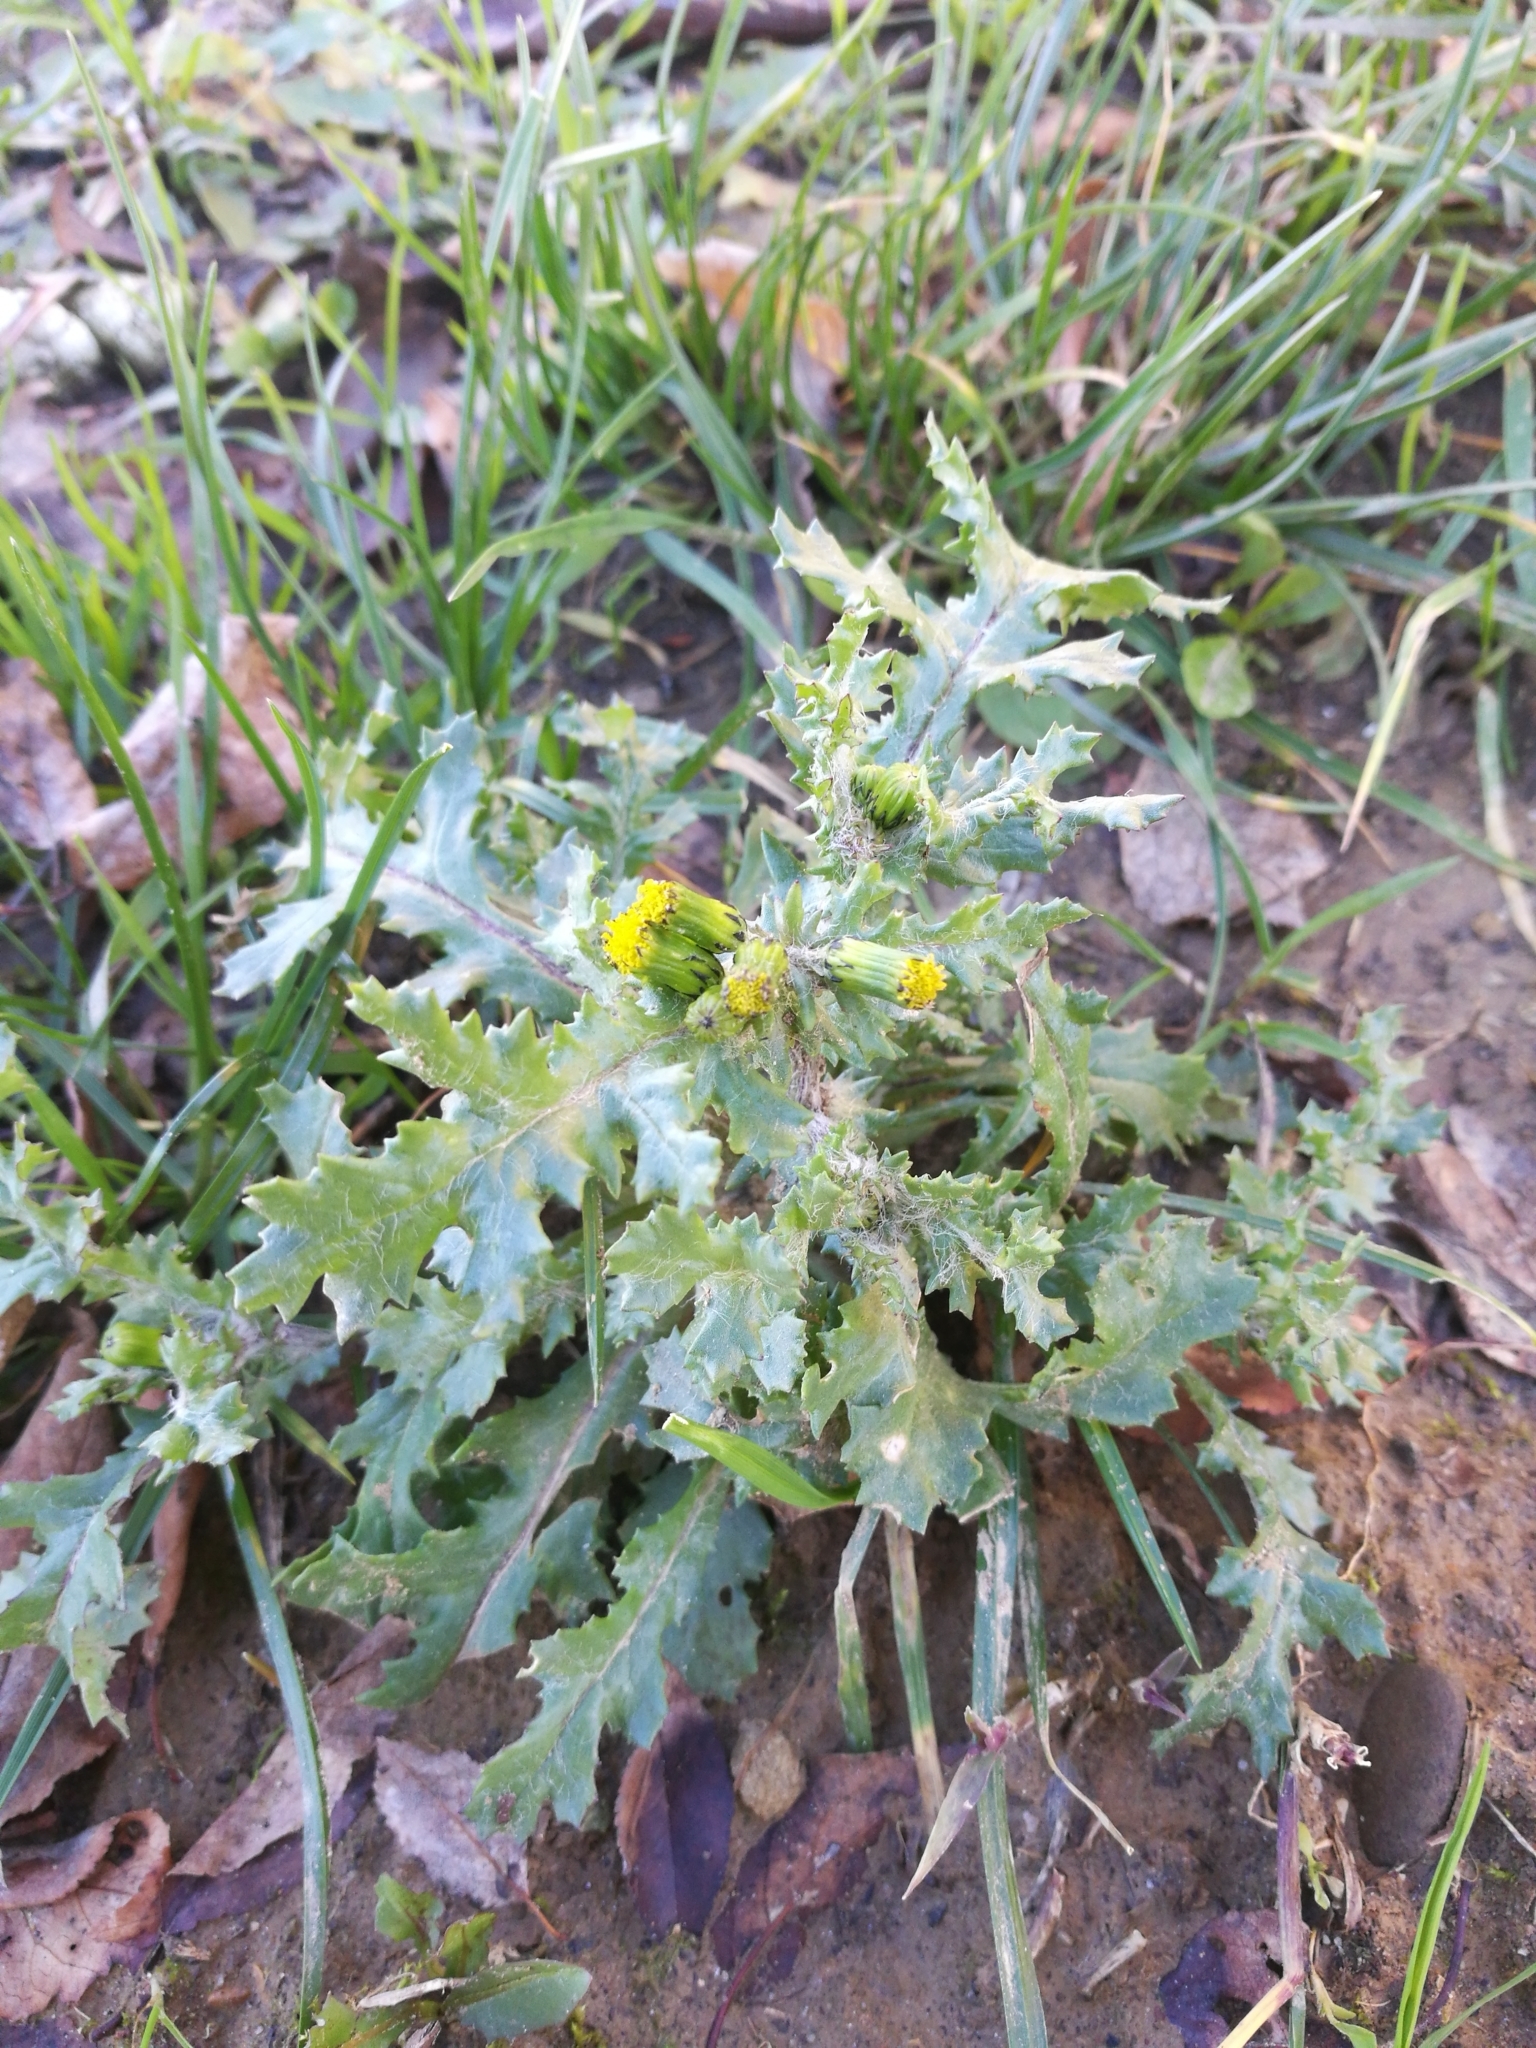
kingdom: Plantae
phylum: Tracheophyta
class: Magnoliopsida
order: Asterales
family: Asteraceae
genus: Senecio
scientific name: Senecio vulgaris
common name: Old-man-in-the-spring
